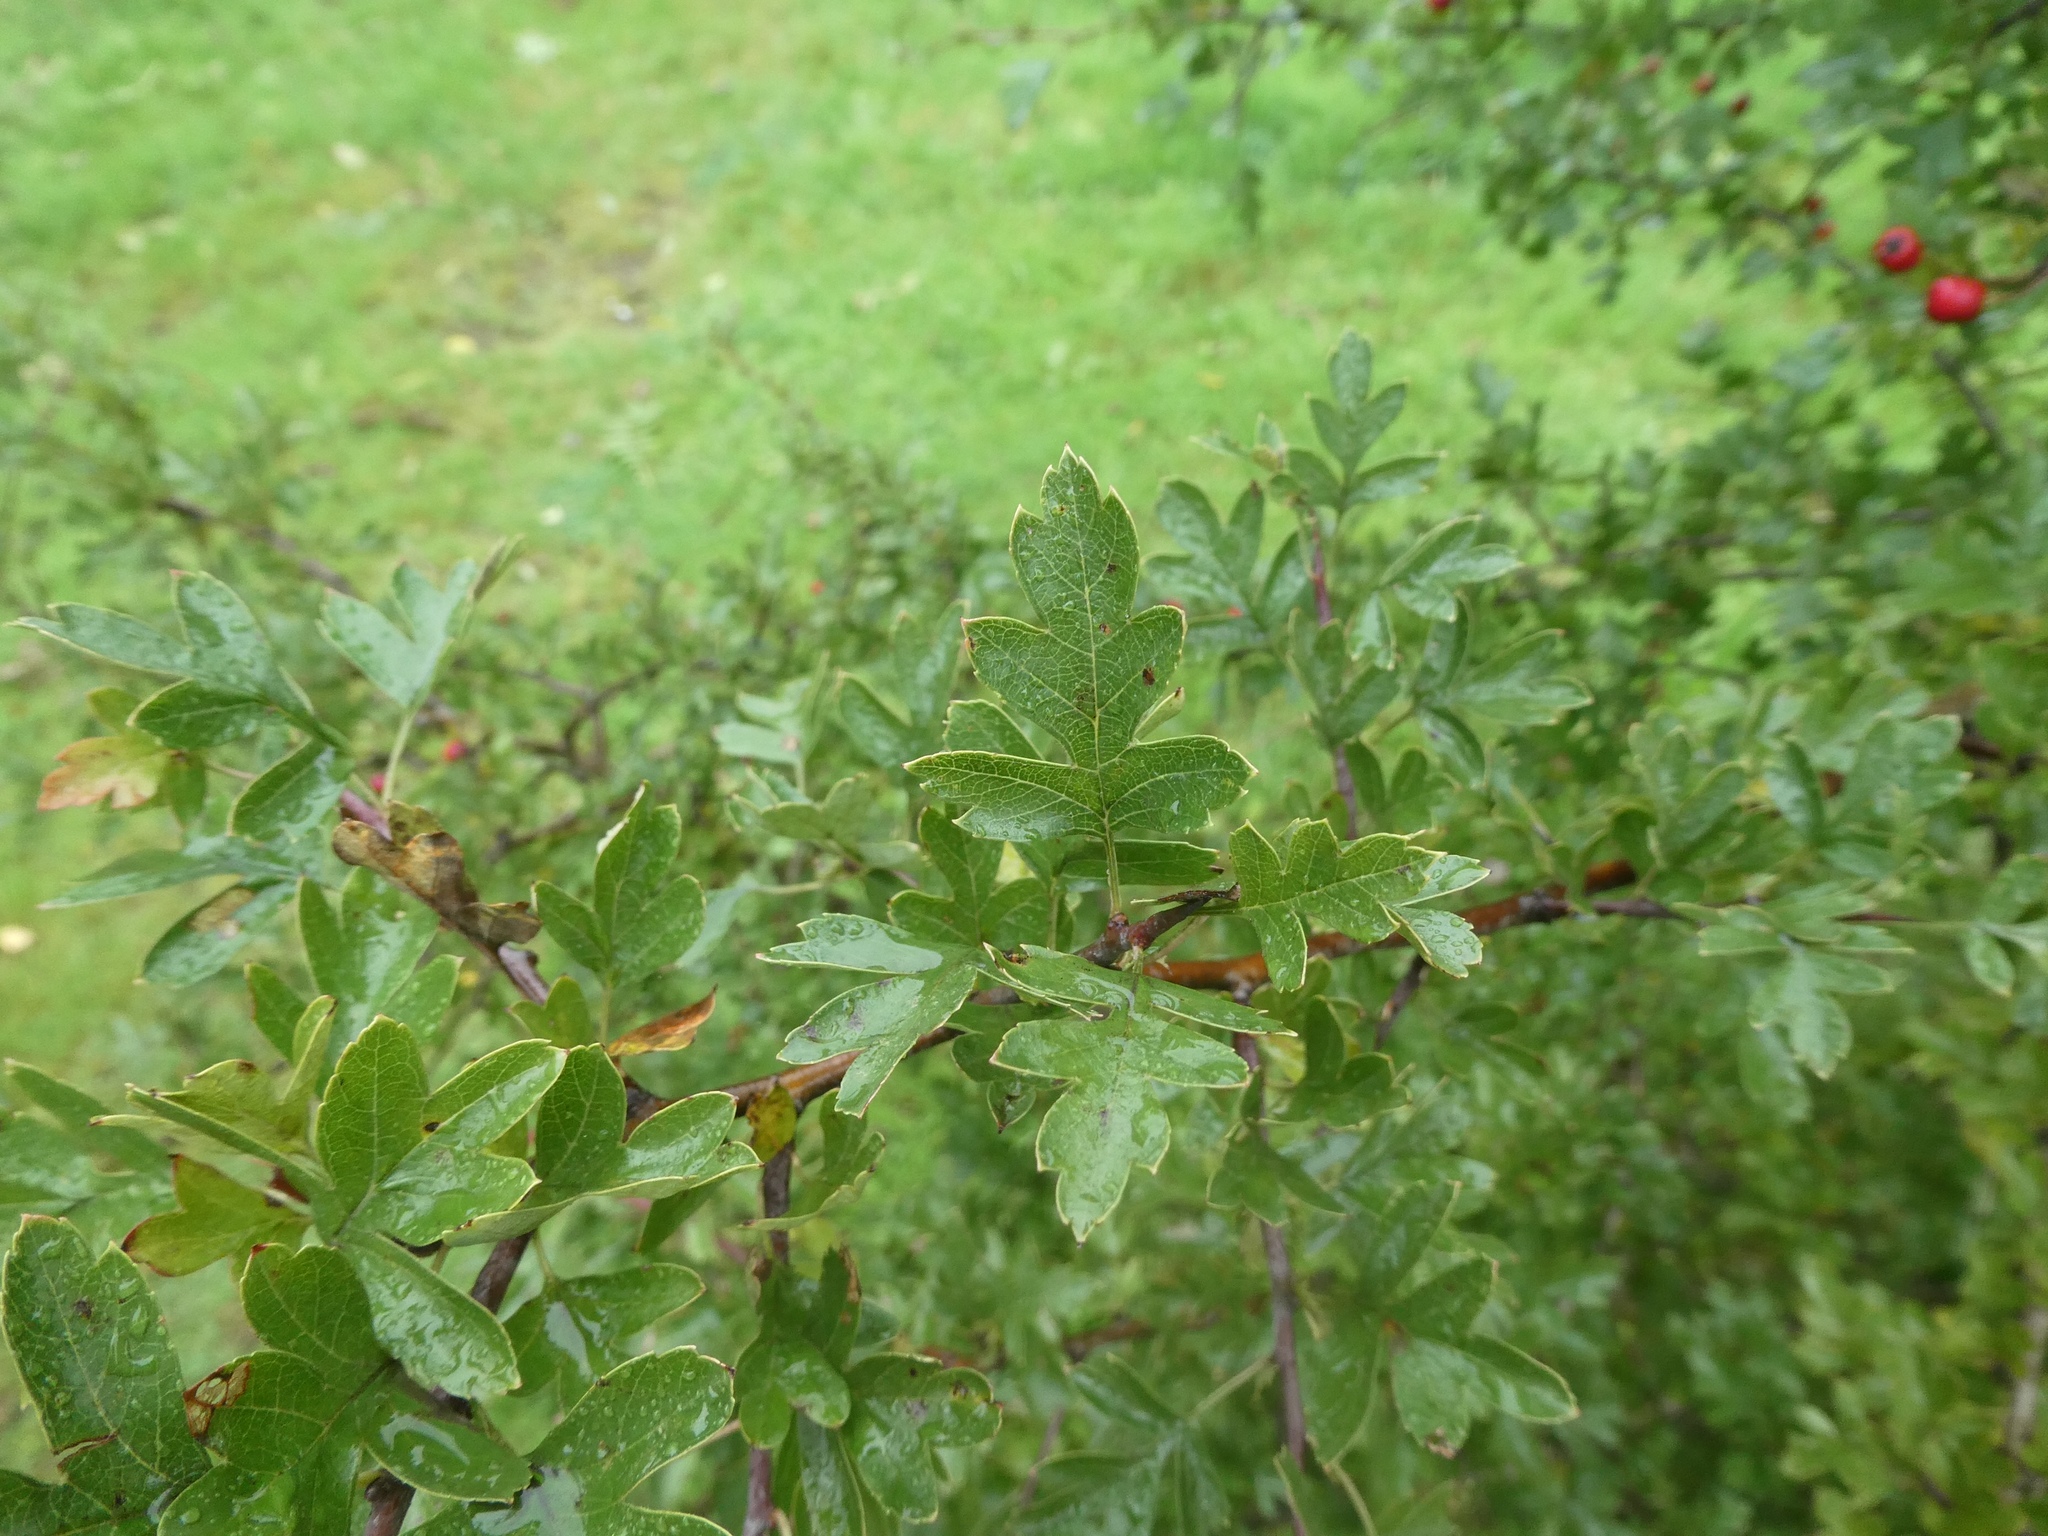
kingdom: Plantae
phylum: Tracheophyta
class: Magnoliopsida
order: Rosales
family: Rosaceae
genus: Crataegus
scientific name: Crataegus monogyna
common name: Hawthorn
